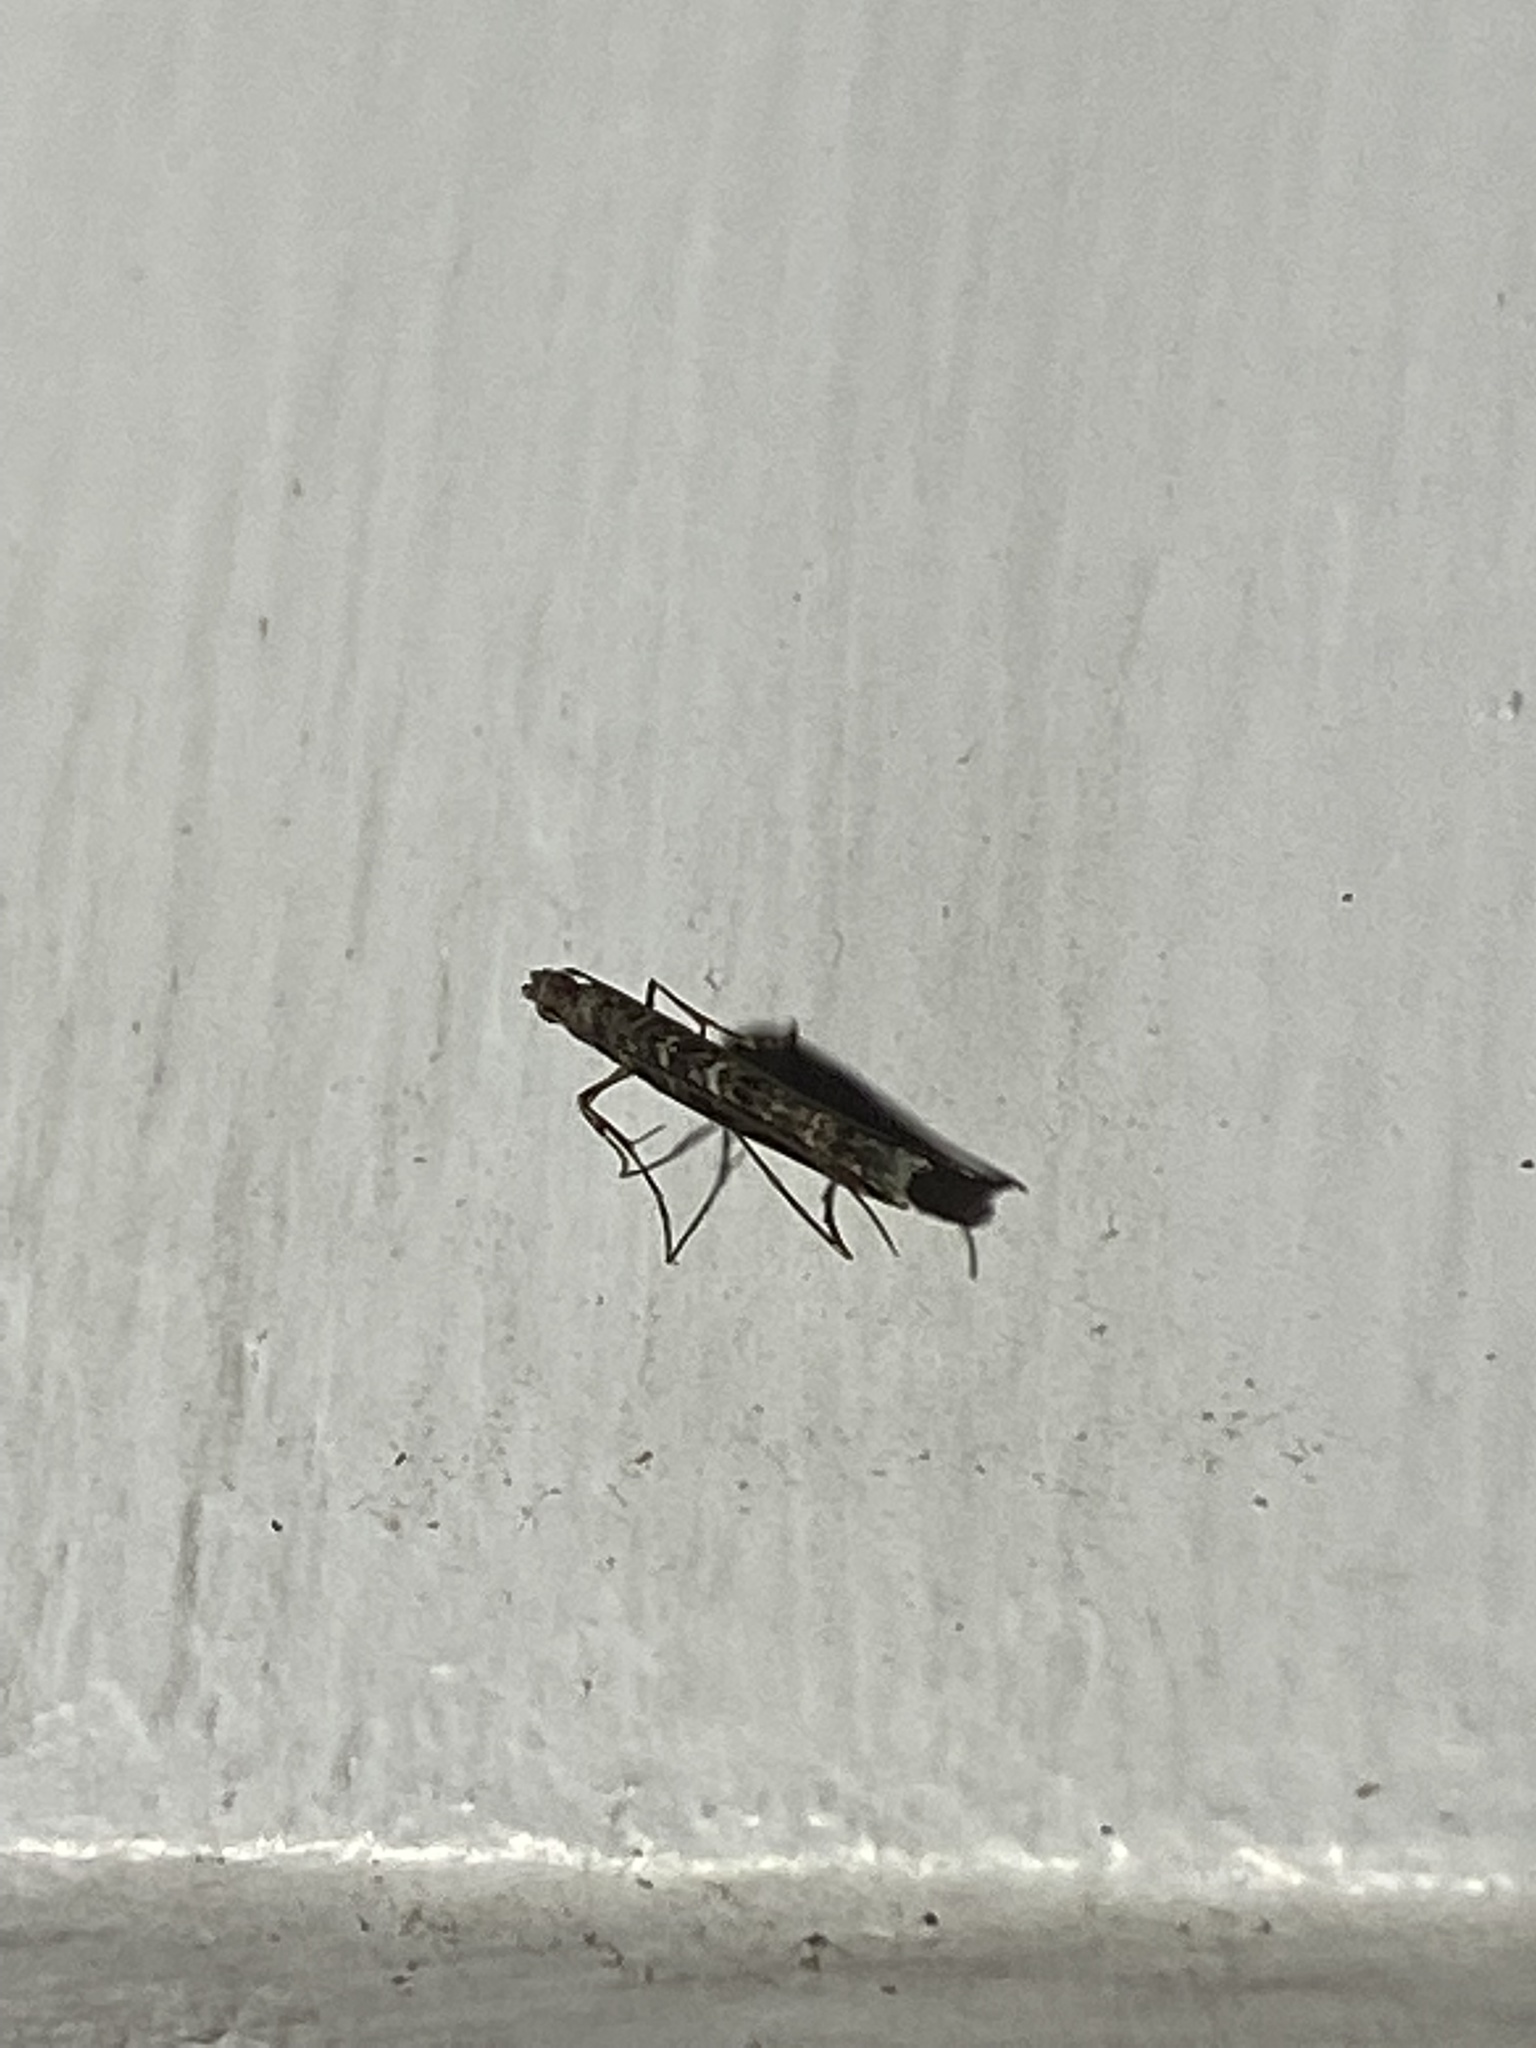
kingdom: Animalia
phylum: Arthropoda
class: Insecta
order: Lepidoptera
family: Gracillariidae
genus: Neurobathra
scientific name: Neurobathra strigifinitella
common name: Finite-channeled leafminer moth
